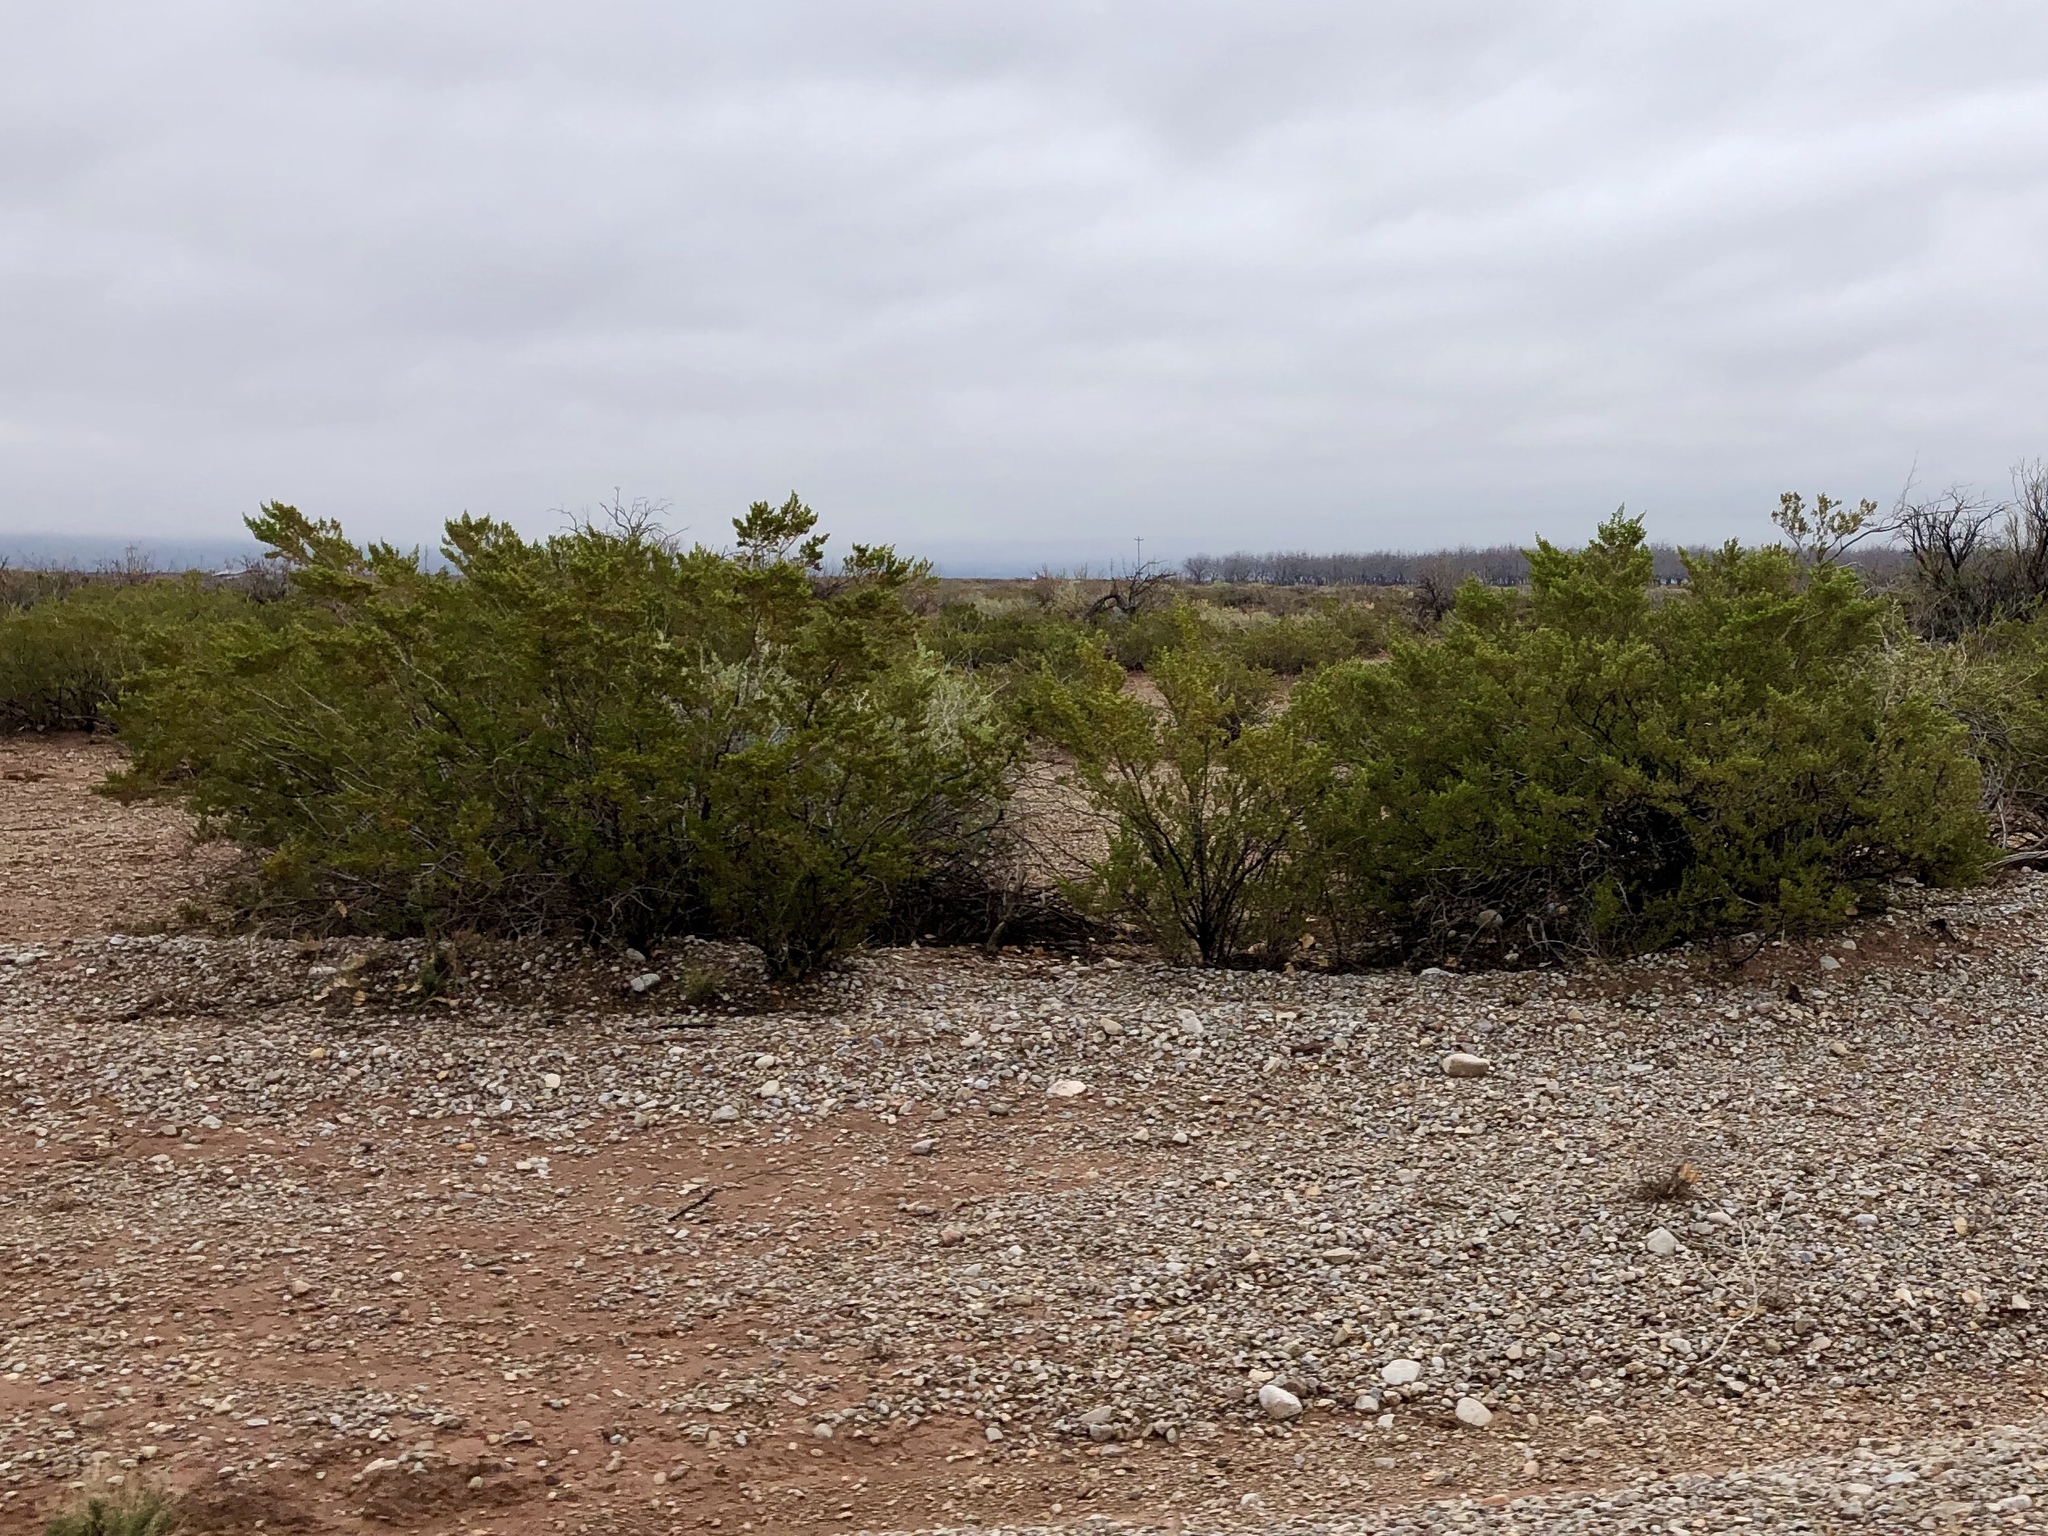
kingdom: Plantae
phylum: Tracheophyta
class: Magnoliopsida
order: Zygophyllales
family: Zygophyllaceae
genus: Larrea
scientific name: Larrea tridentata
